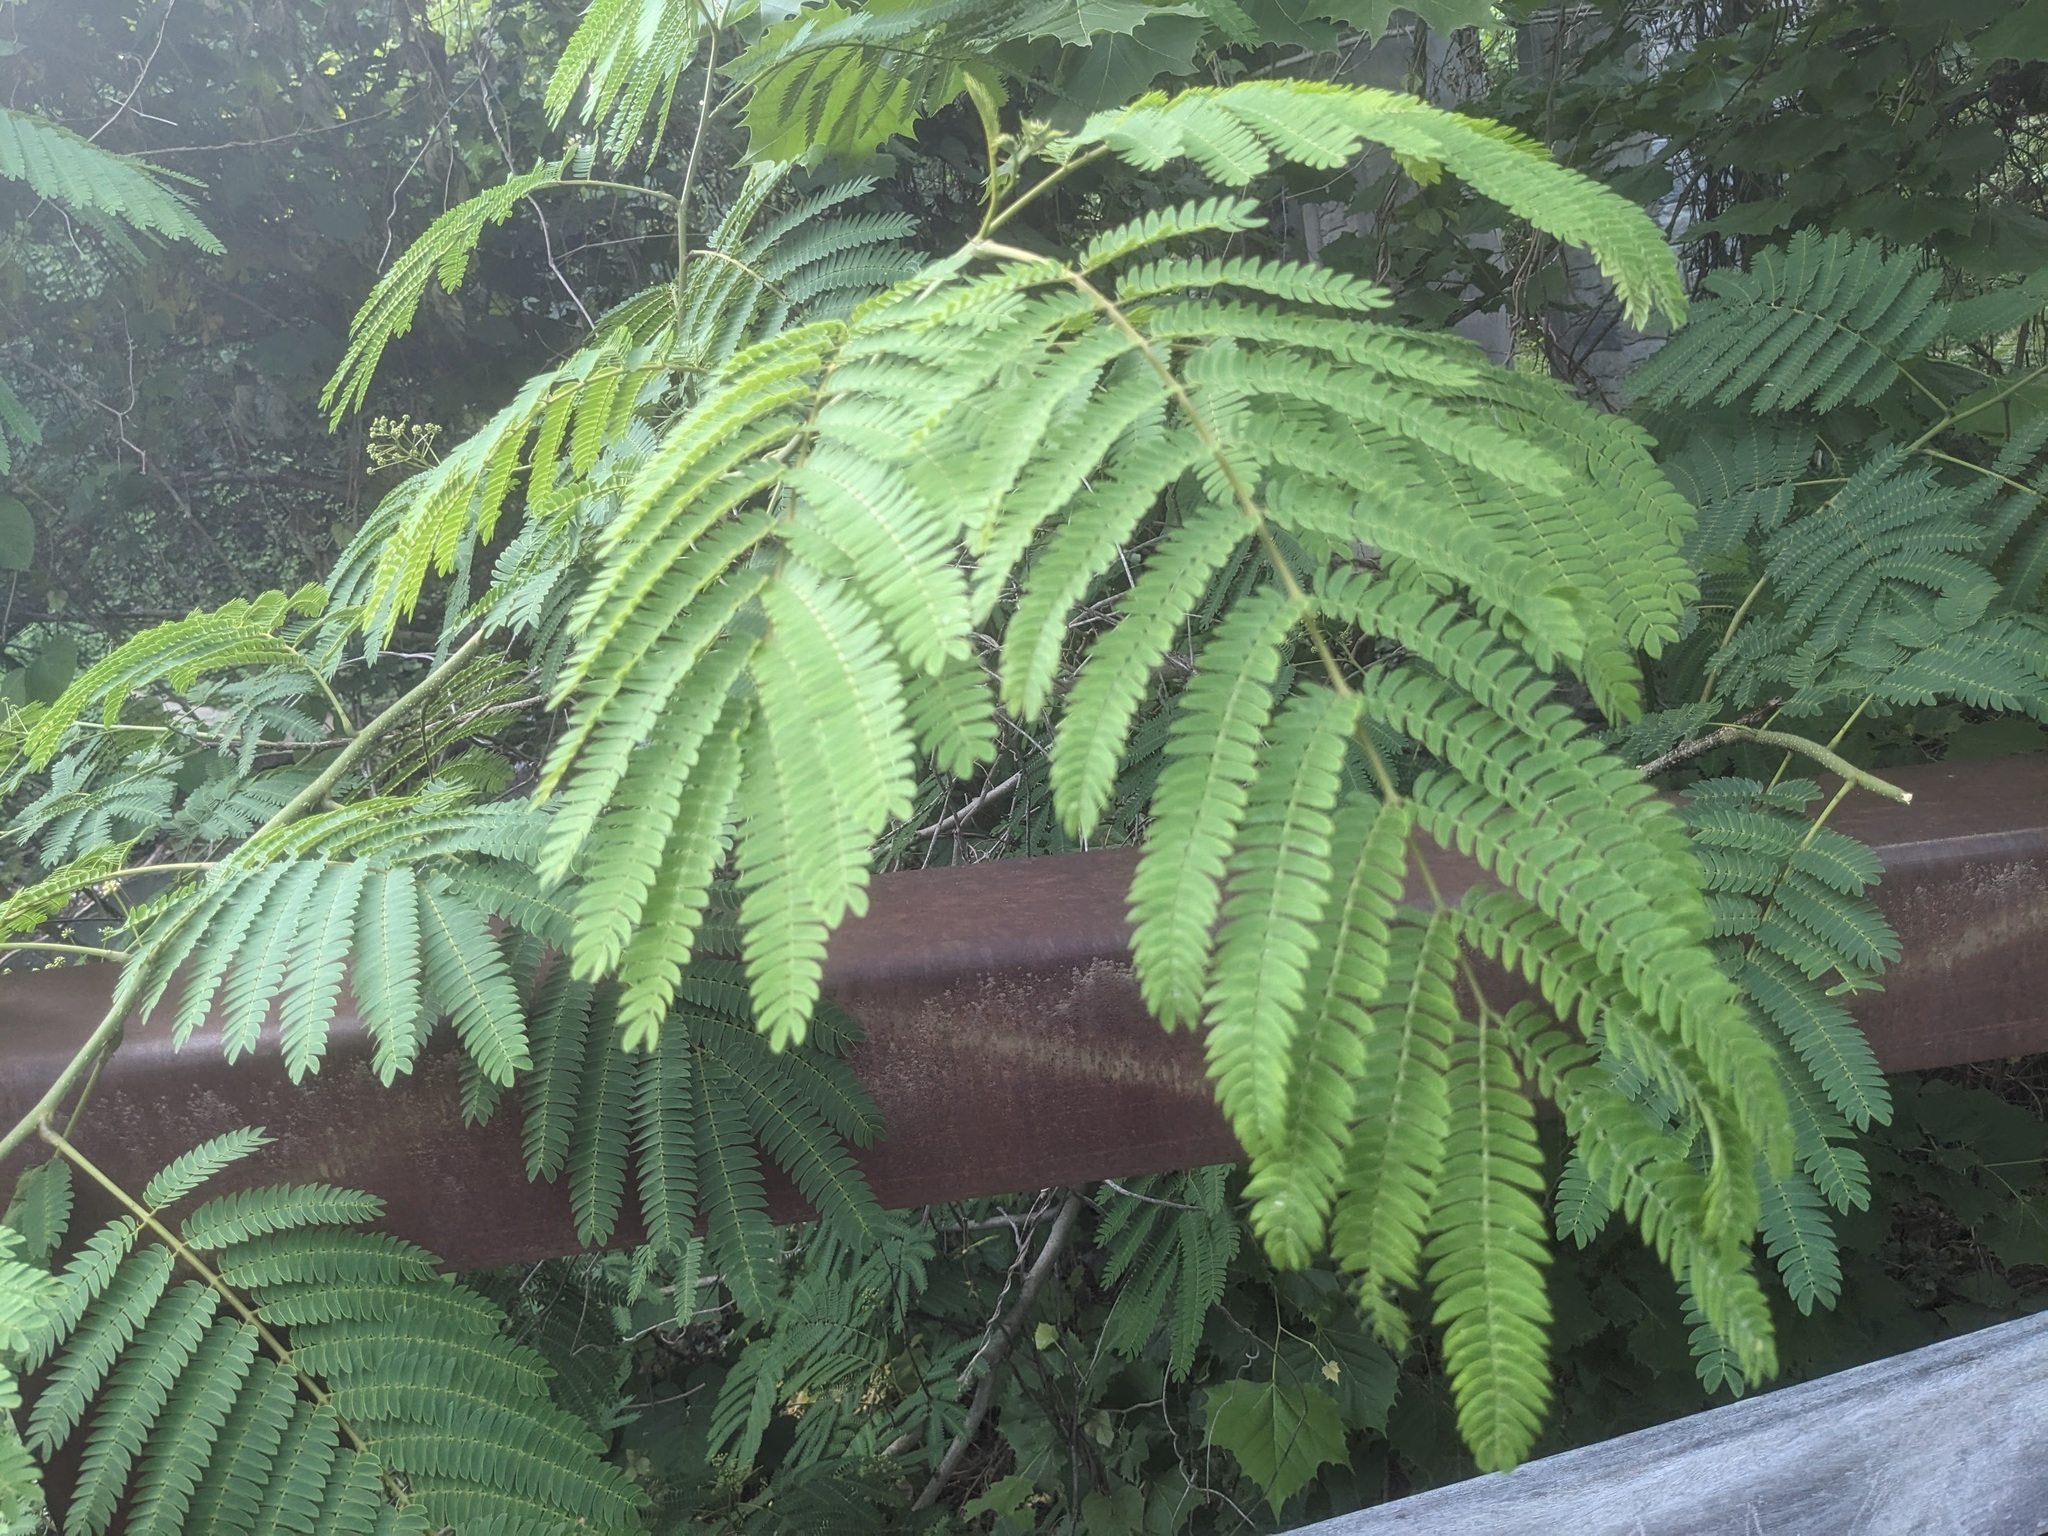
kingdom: Plantae
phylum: Tracheophyta
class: Magnoliopsida
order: Fabales
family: Fabaceae
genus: Albizia
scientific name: Albizia julibrissin
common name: Silktree
